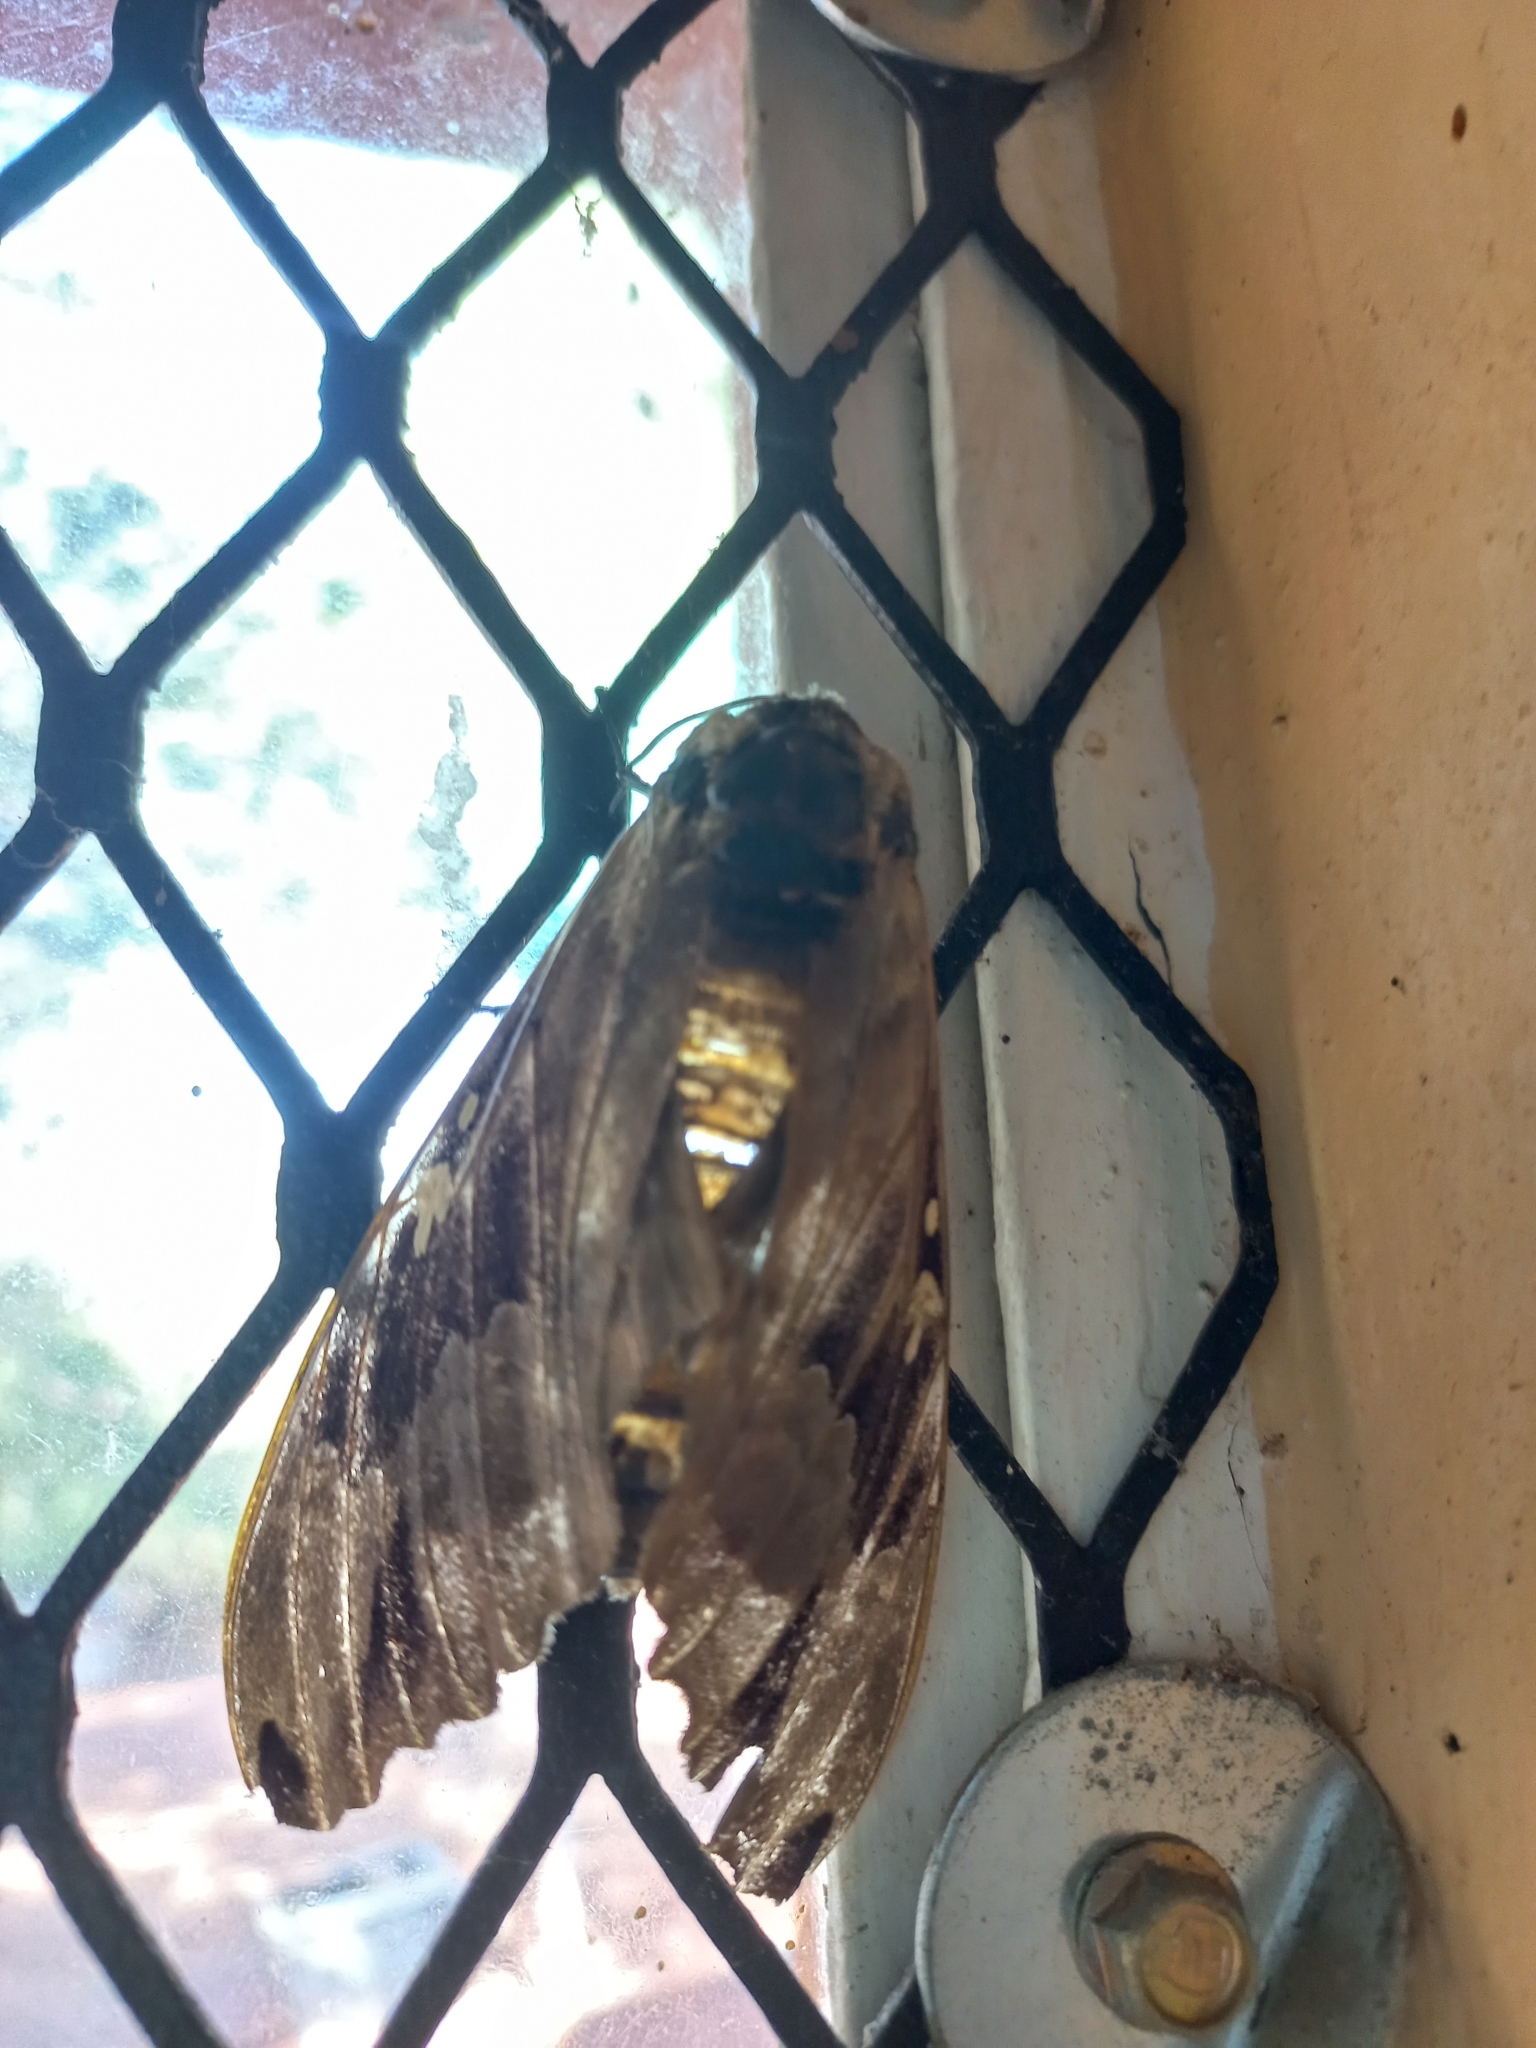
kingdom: Animalia
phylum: Arthropoda
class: Insecta
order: Lepidoptera
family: Sphingidae
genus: Lophostethus
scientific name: Lophostethus dumolinii
